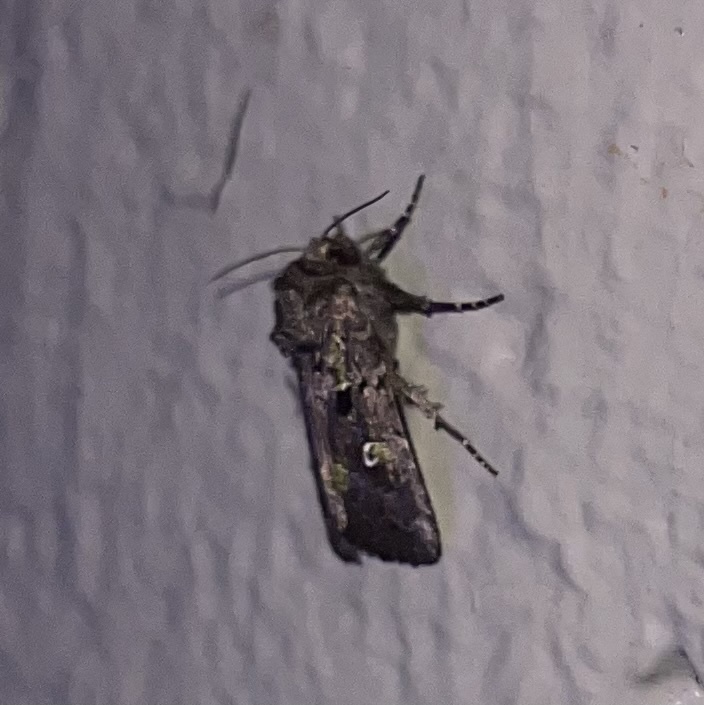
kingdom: Animalia
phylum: Arthropoda
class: Insecta
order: Lepidoptera
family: Noctuidae
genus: Lacinipolia
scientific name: Lacinipolia renigera
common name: Kidney-spotted minor
